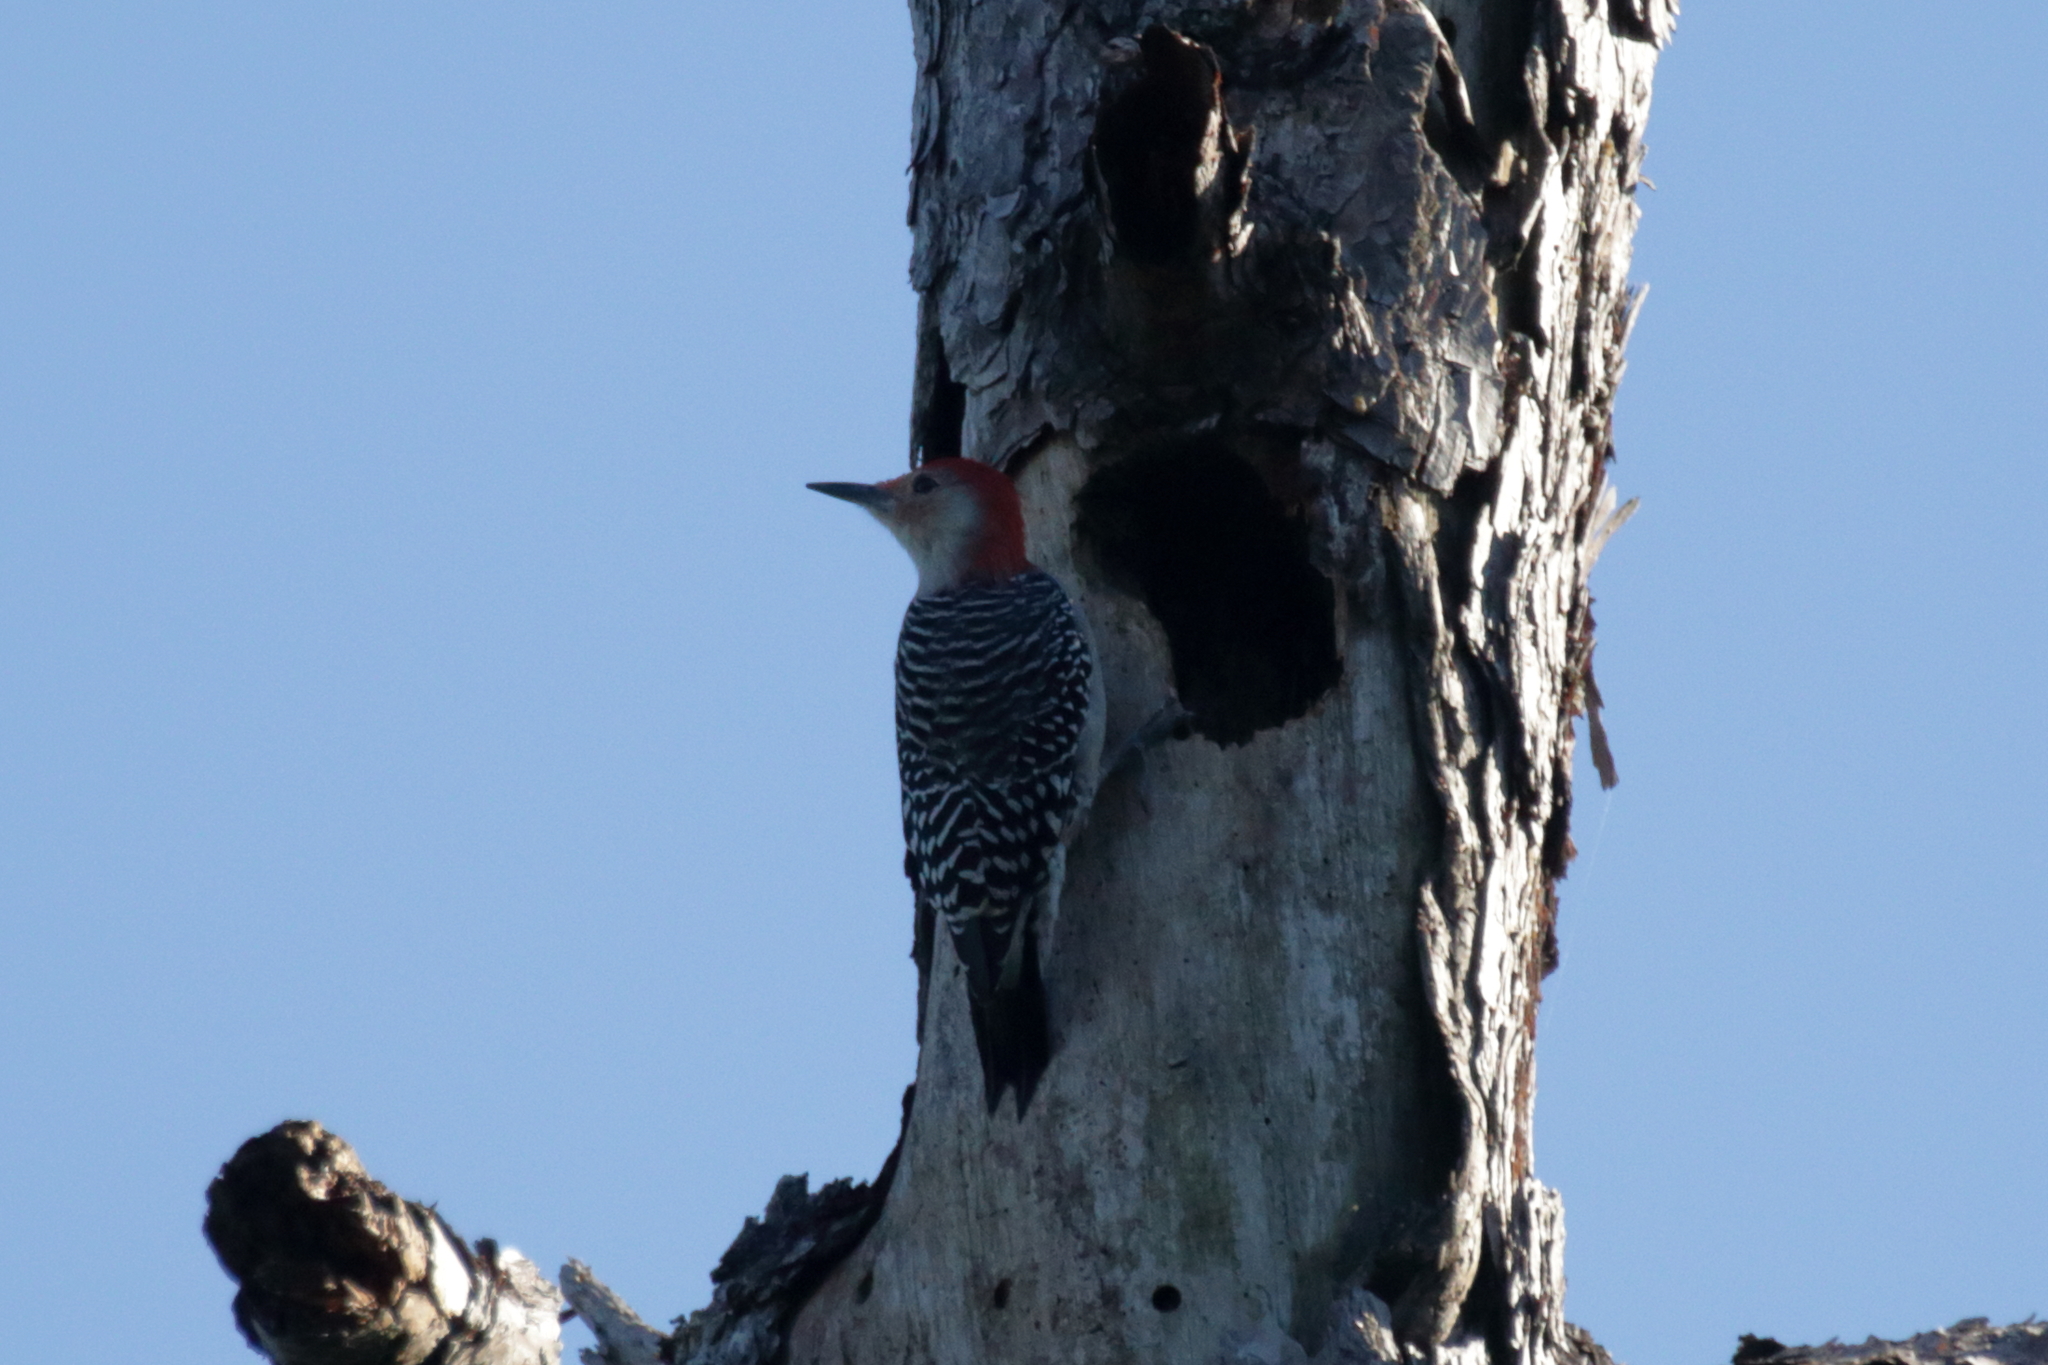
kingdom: Animalia
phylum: Chordata
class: Aves
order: Piciformes
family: Picidae
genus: Melanerpes
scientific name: Melanerpes carolinus
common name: Red-bellied woodpecker
